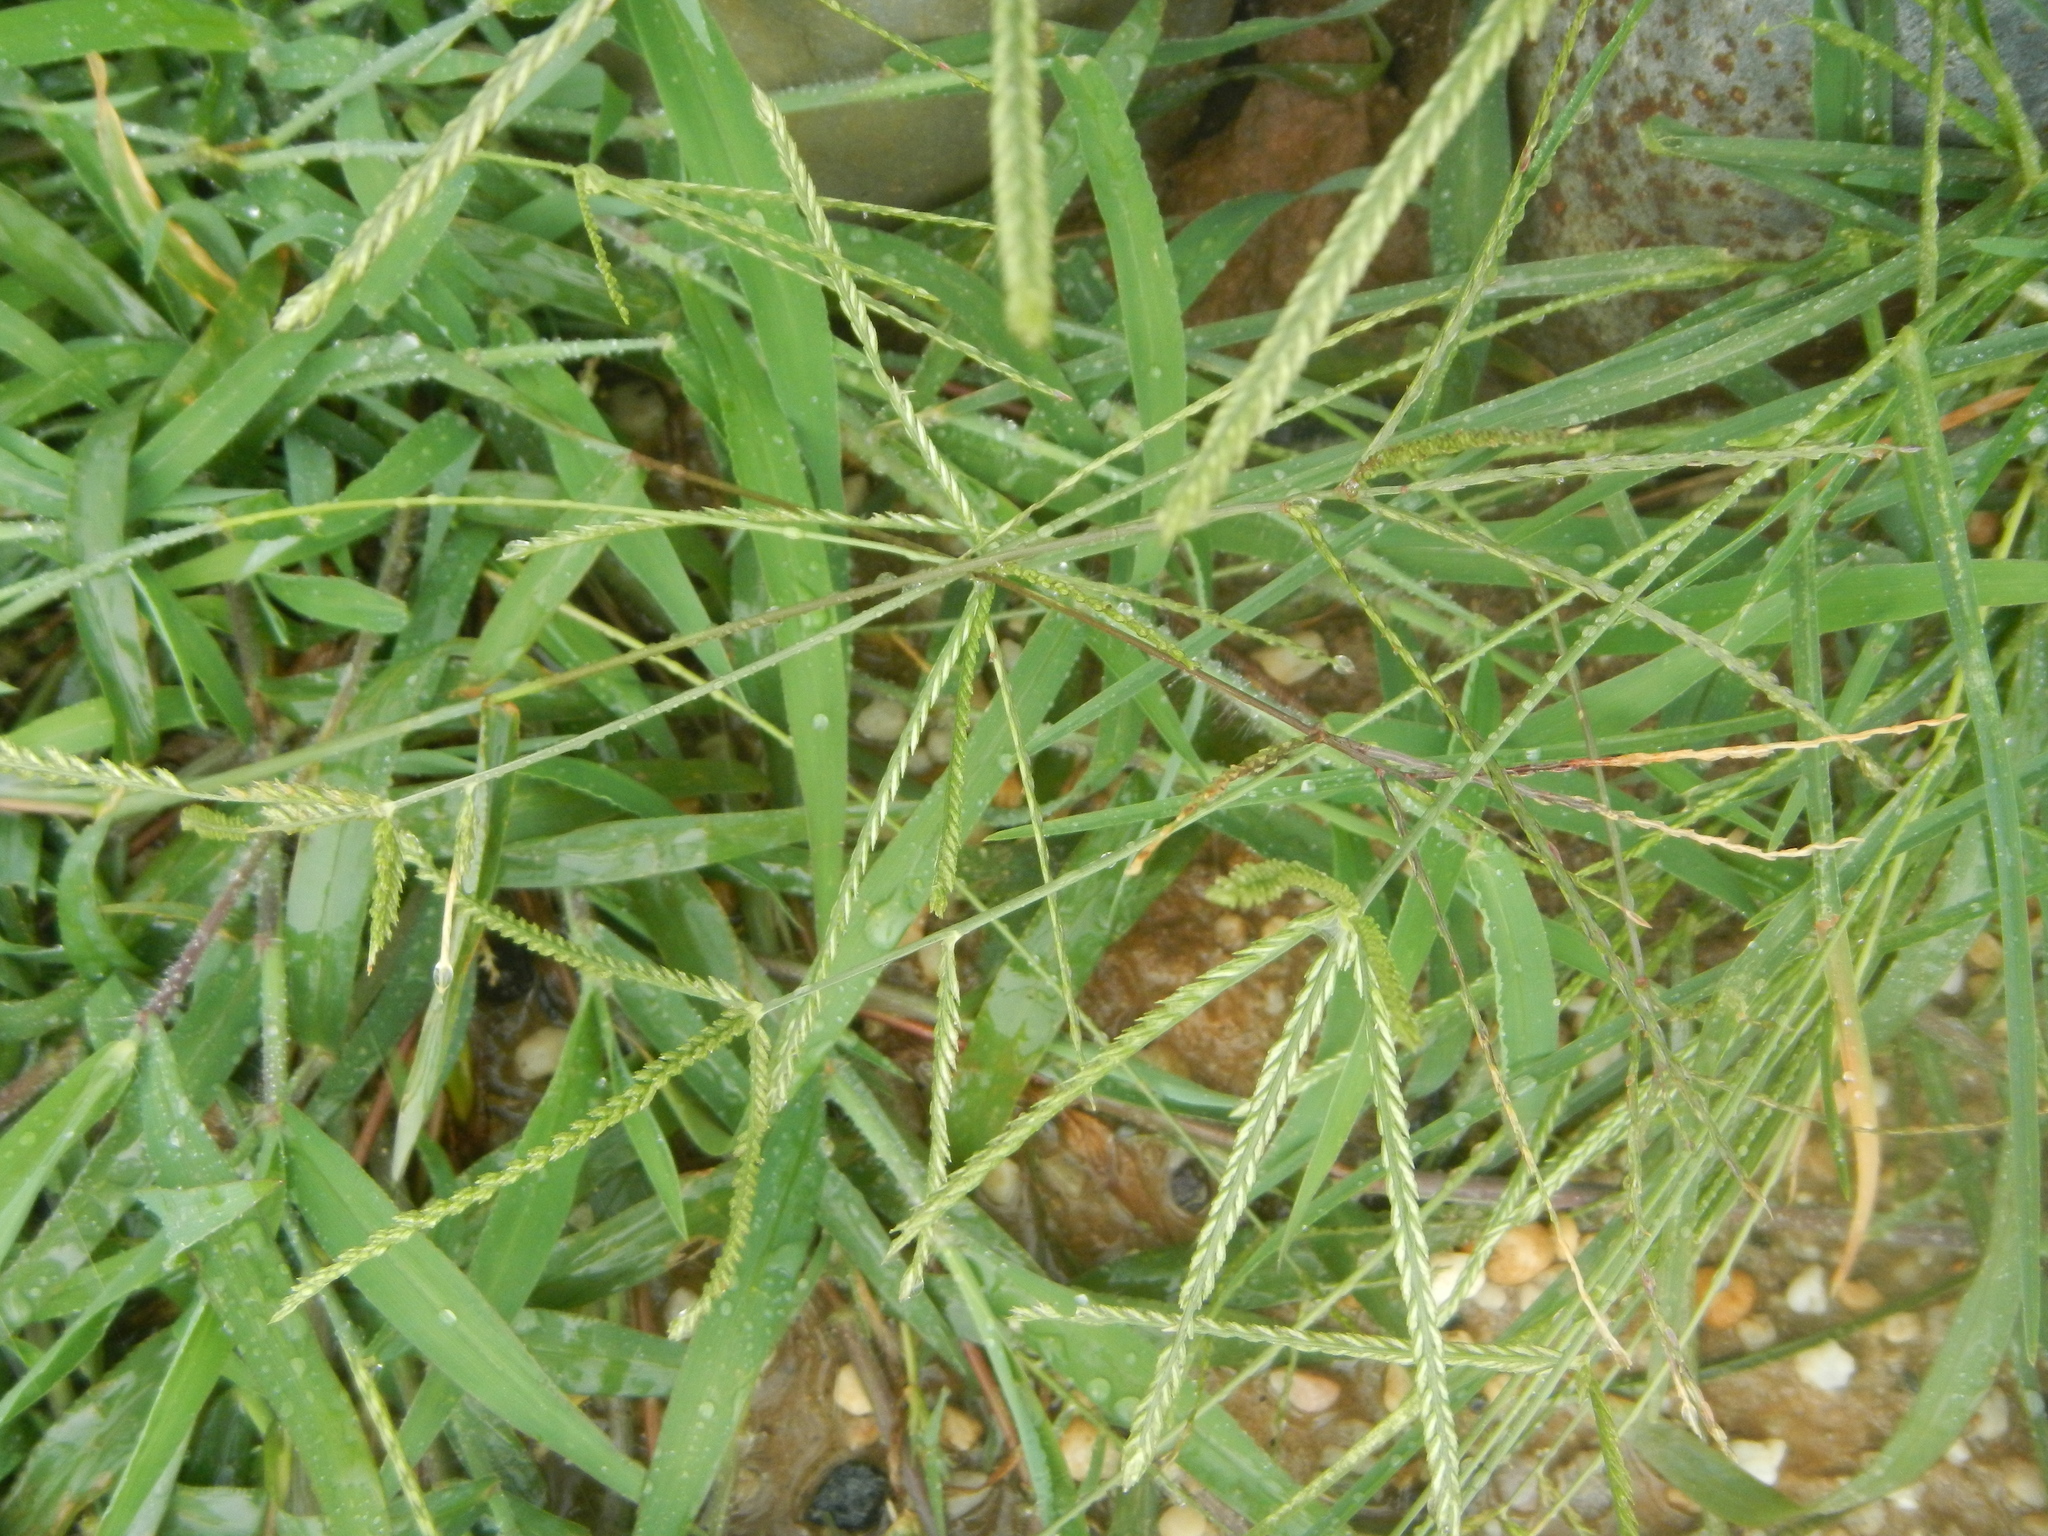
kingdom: Plantae
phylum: Tracheophyta
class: Liliopsida
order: Poales
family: Poaceae
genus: Eleusine
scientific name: Eleusine indica
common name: Yard-grass
